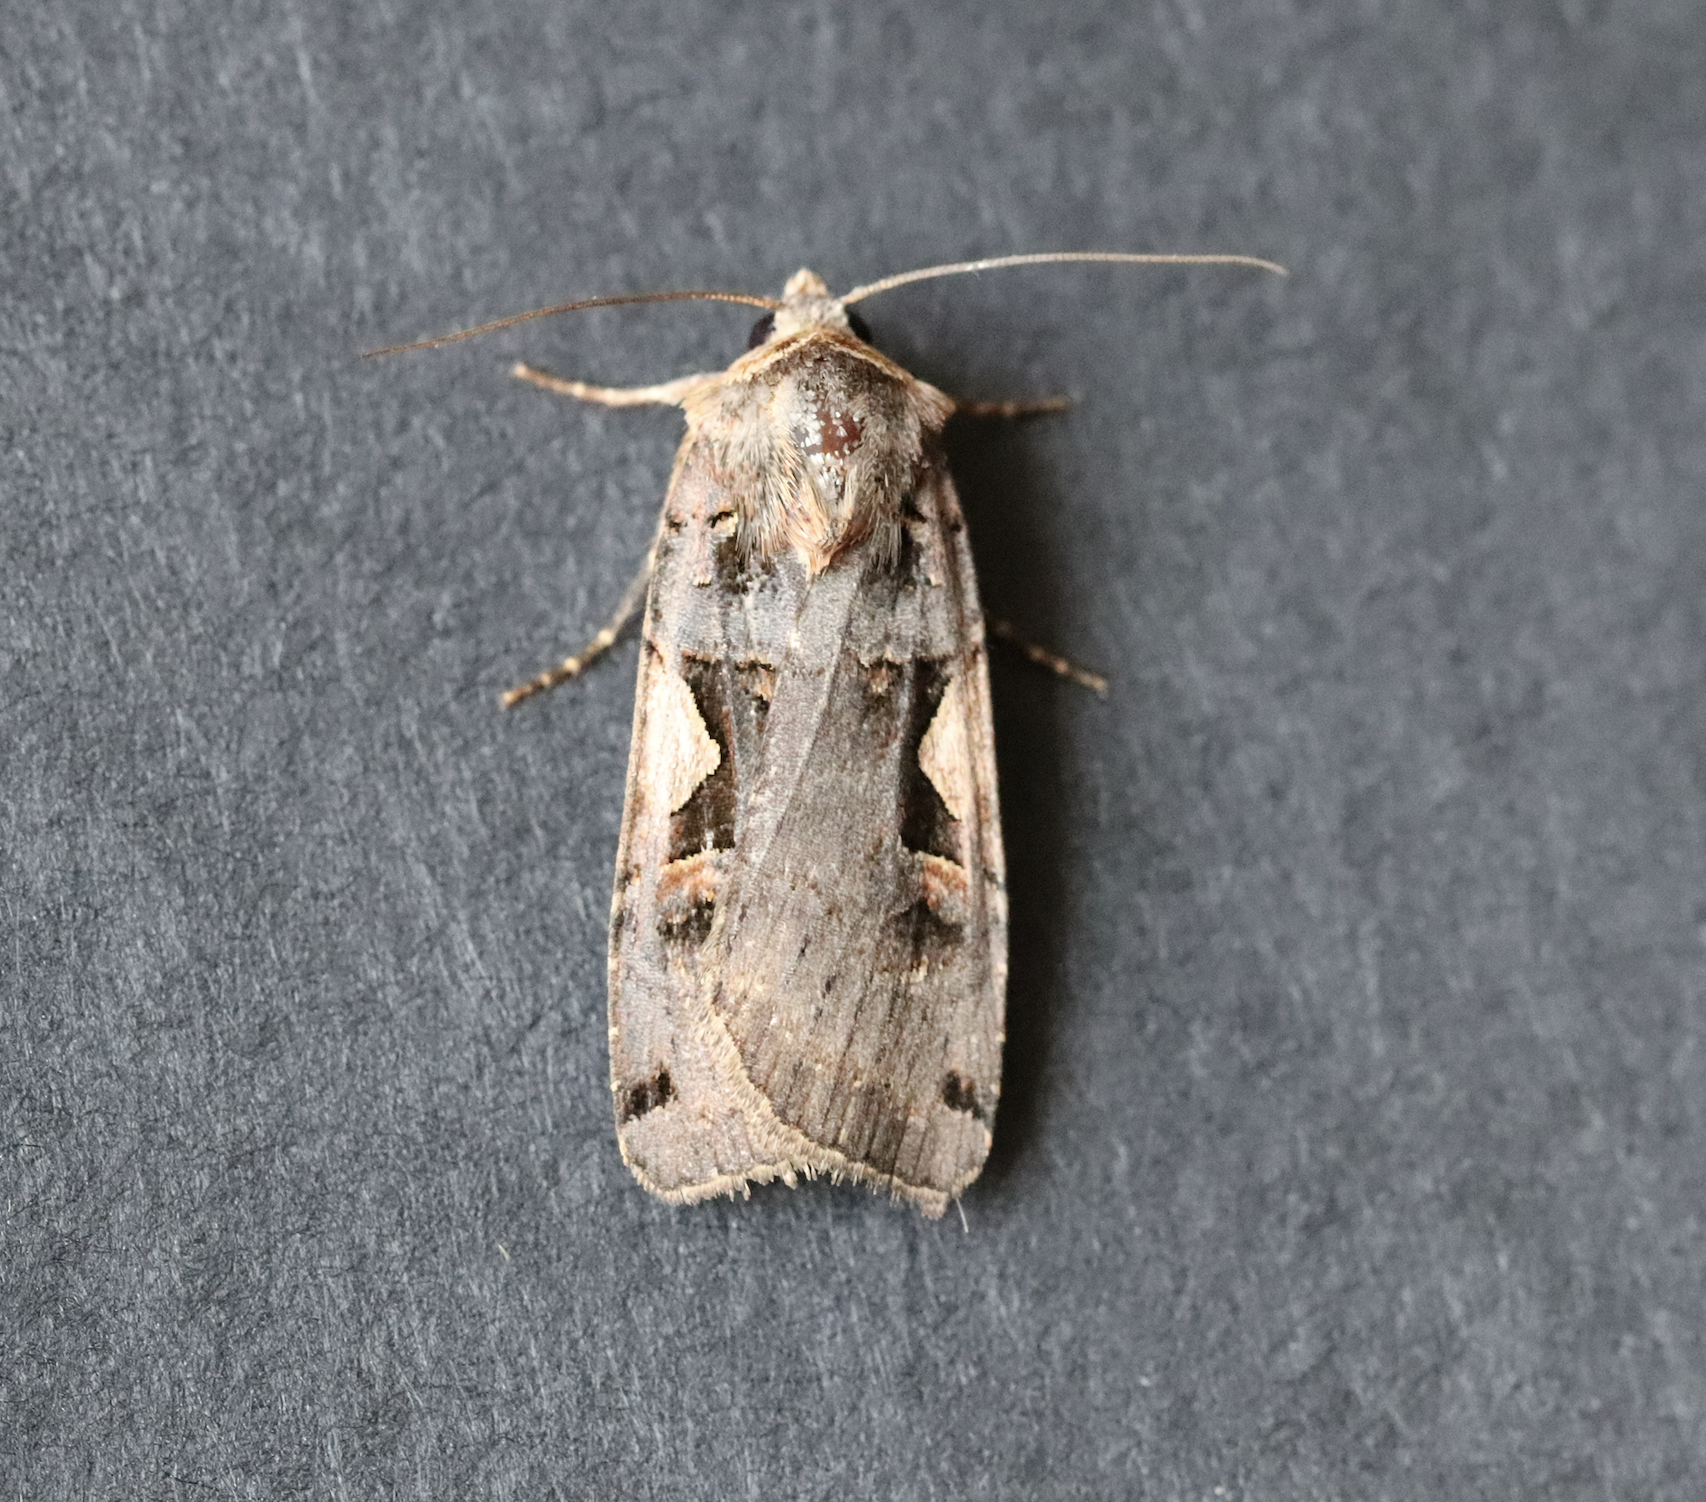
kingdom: Animalia
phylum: Arthropoda
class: Insecta
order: Lepidoptera
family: Noctuidae
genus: Xestia
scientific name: Xestia c-nigrum
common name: Setaceous hebrew character
